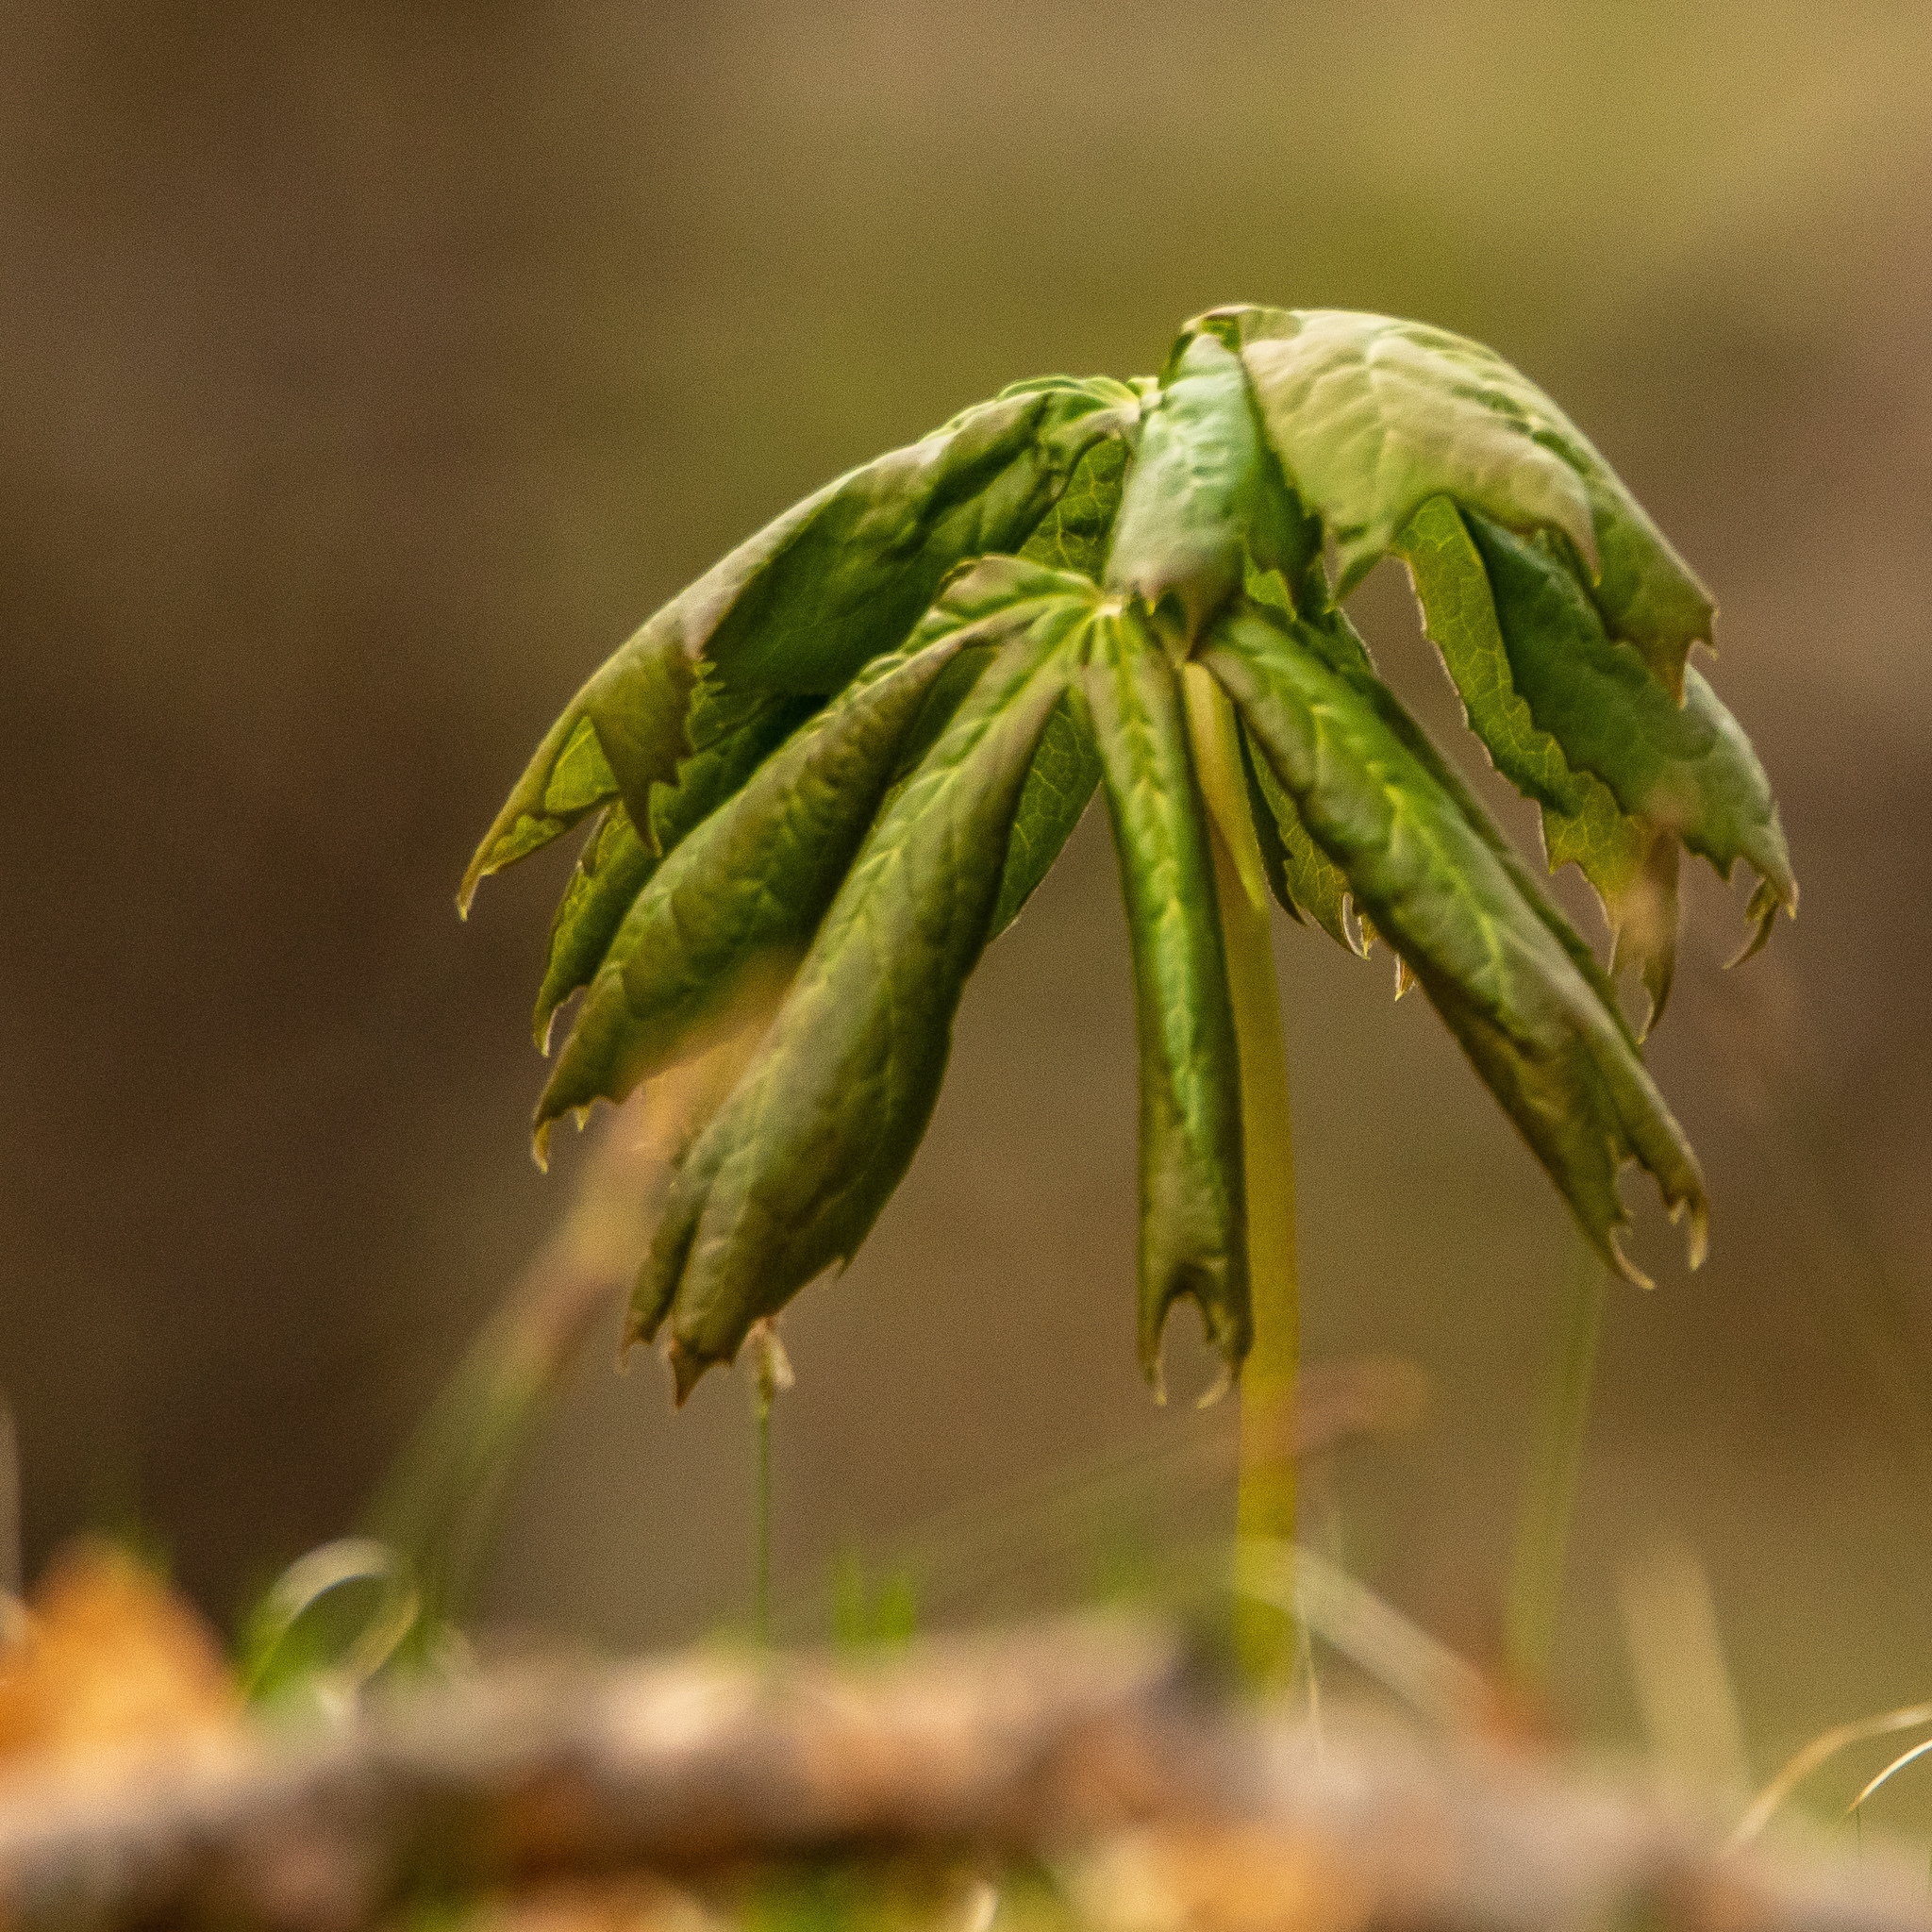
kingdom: Plantae
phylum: Tracheophyta
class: Magnoliopsida
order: Ranunculales
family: Berberidaceae
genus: Podophyllum
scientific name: Podophyllum peltatum
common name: Wild mandrake
